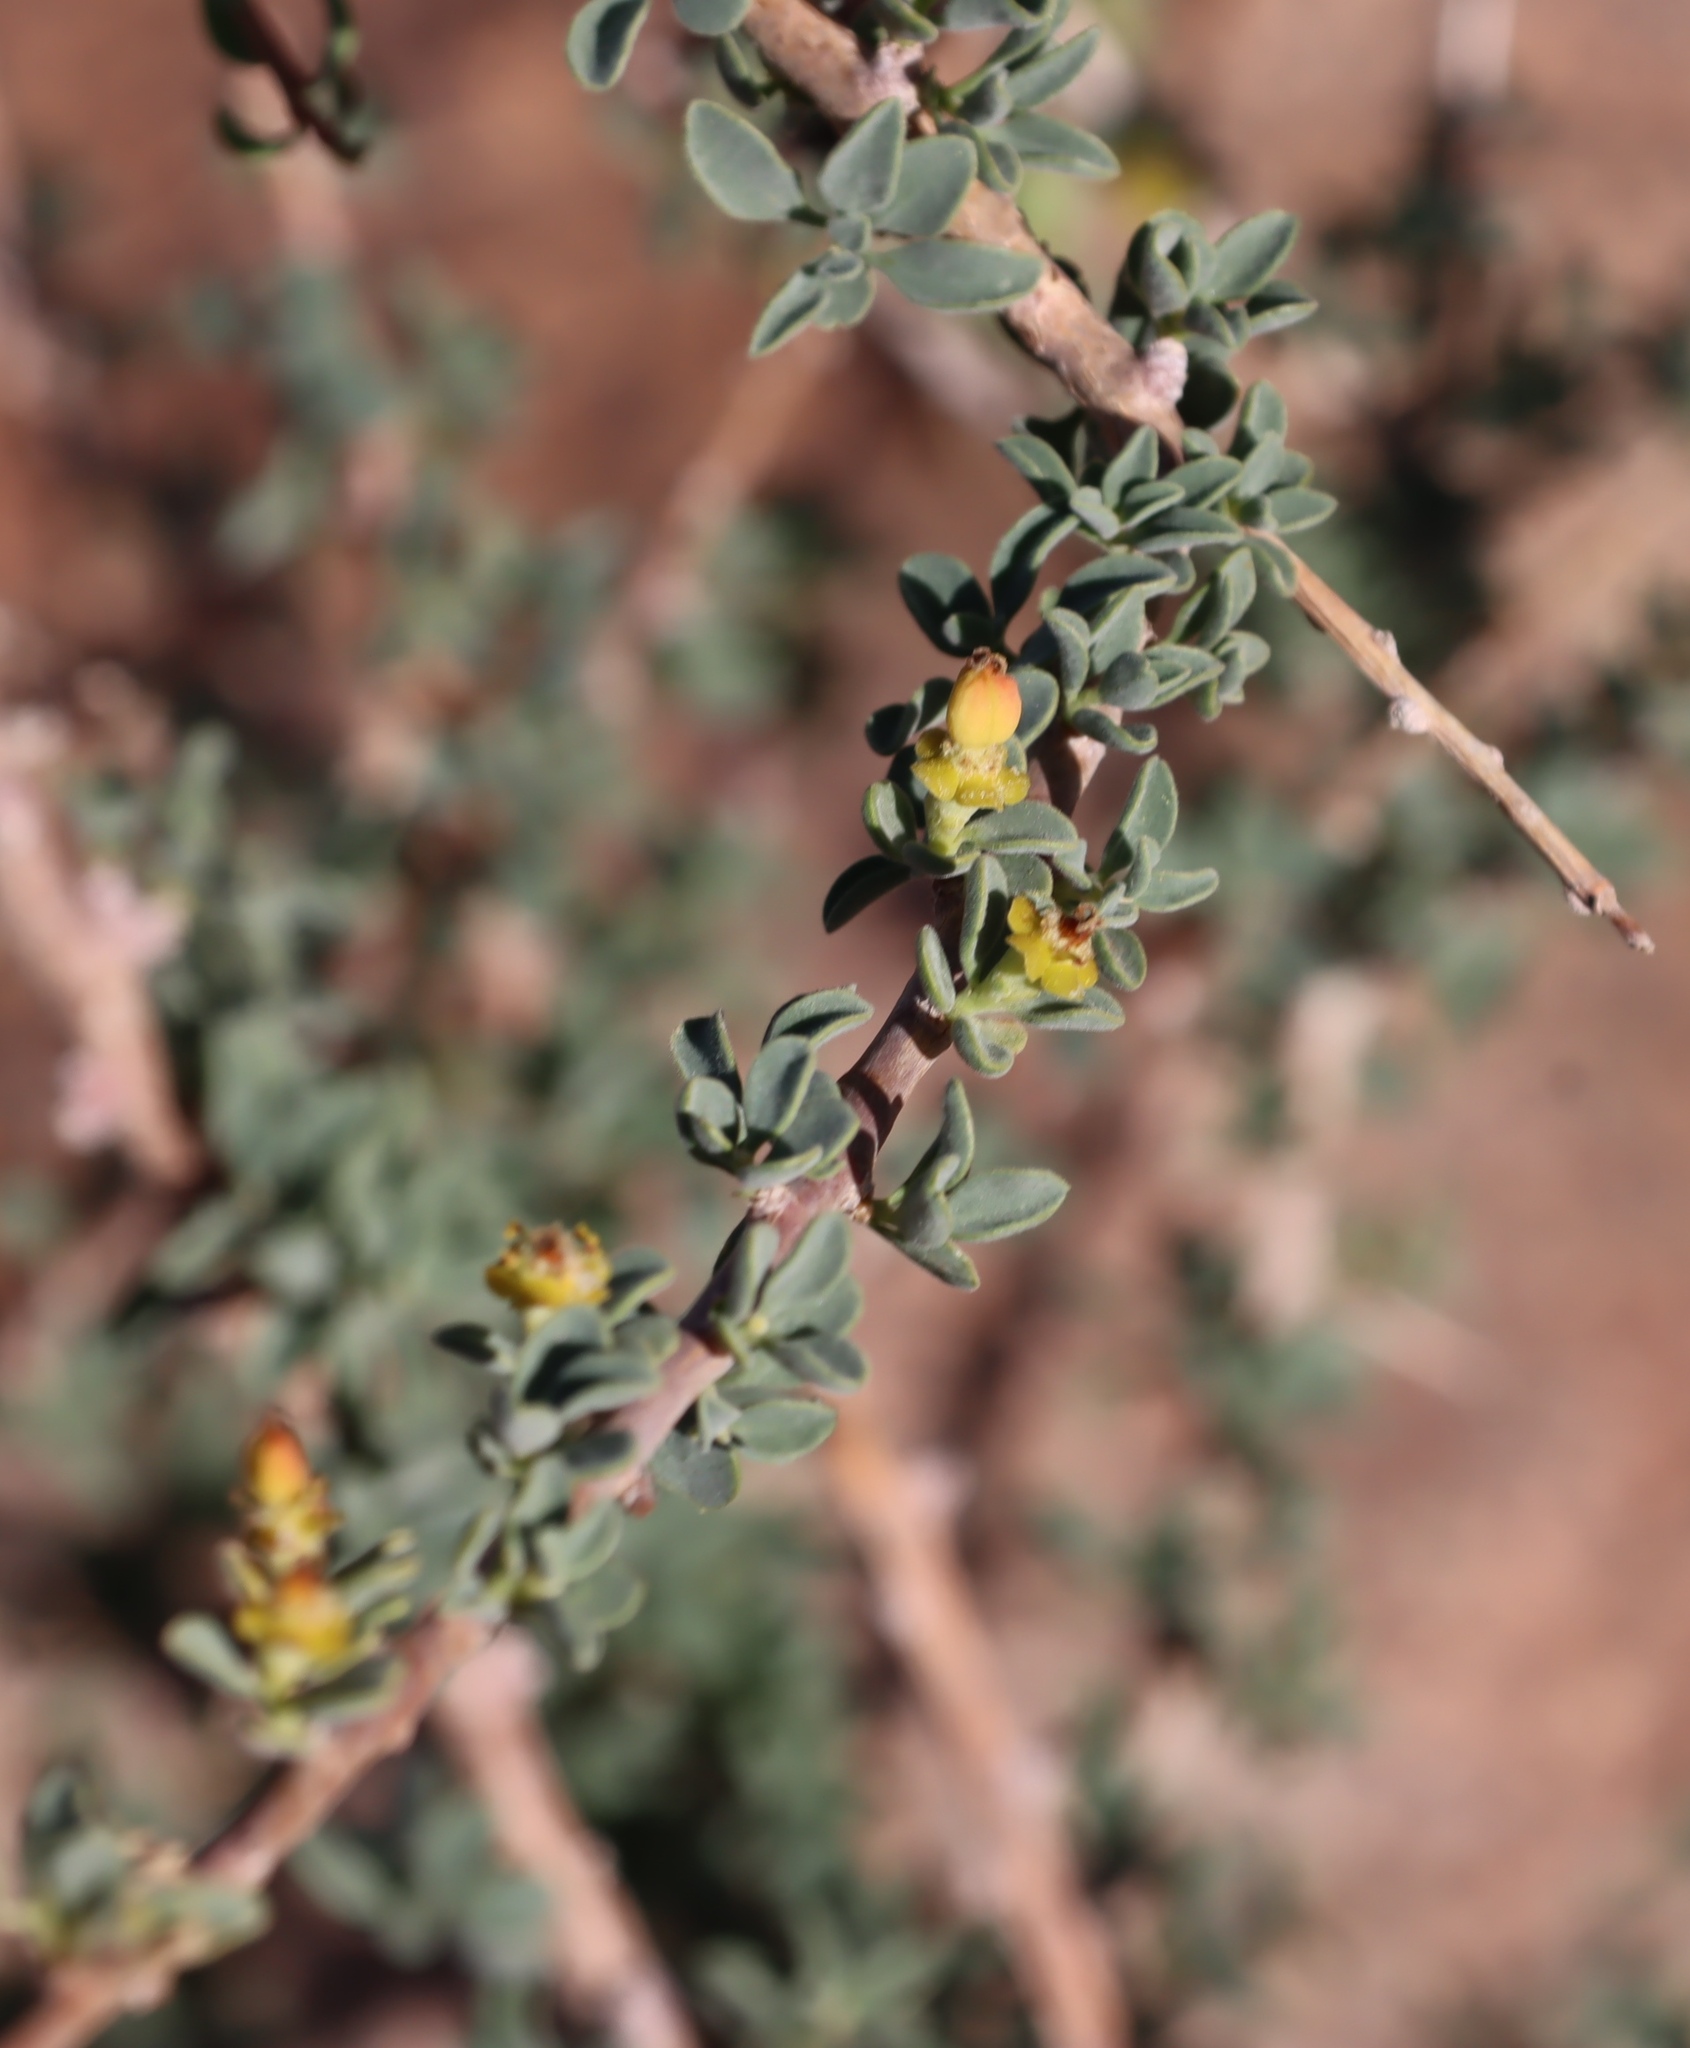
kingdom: Plantae
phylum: Tracheophyta
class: Magnoliopsida
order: Malpighiales
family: Euphorbiaceae
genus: Euphorbia
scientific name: Euphorbia guerichiana
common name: Paper-barked milkbush
